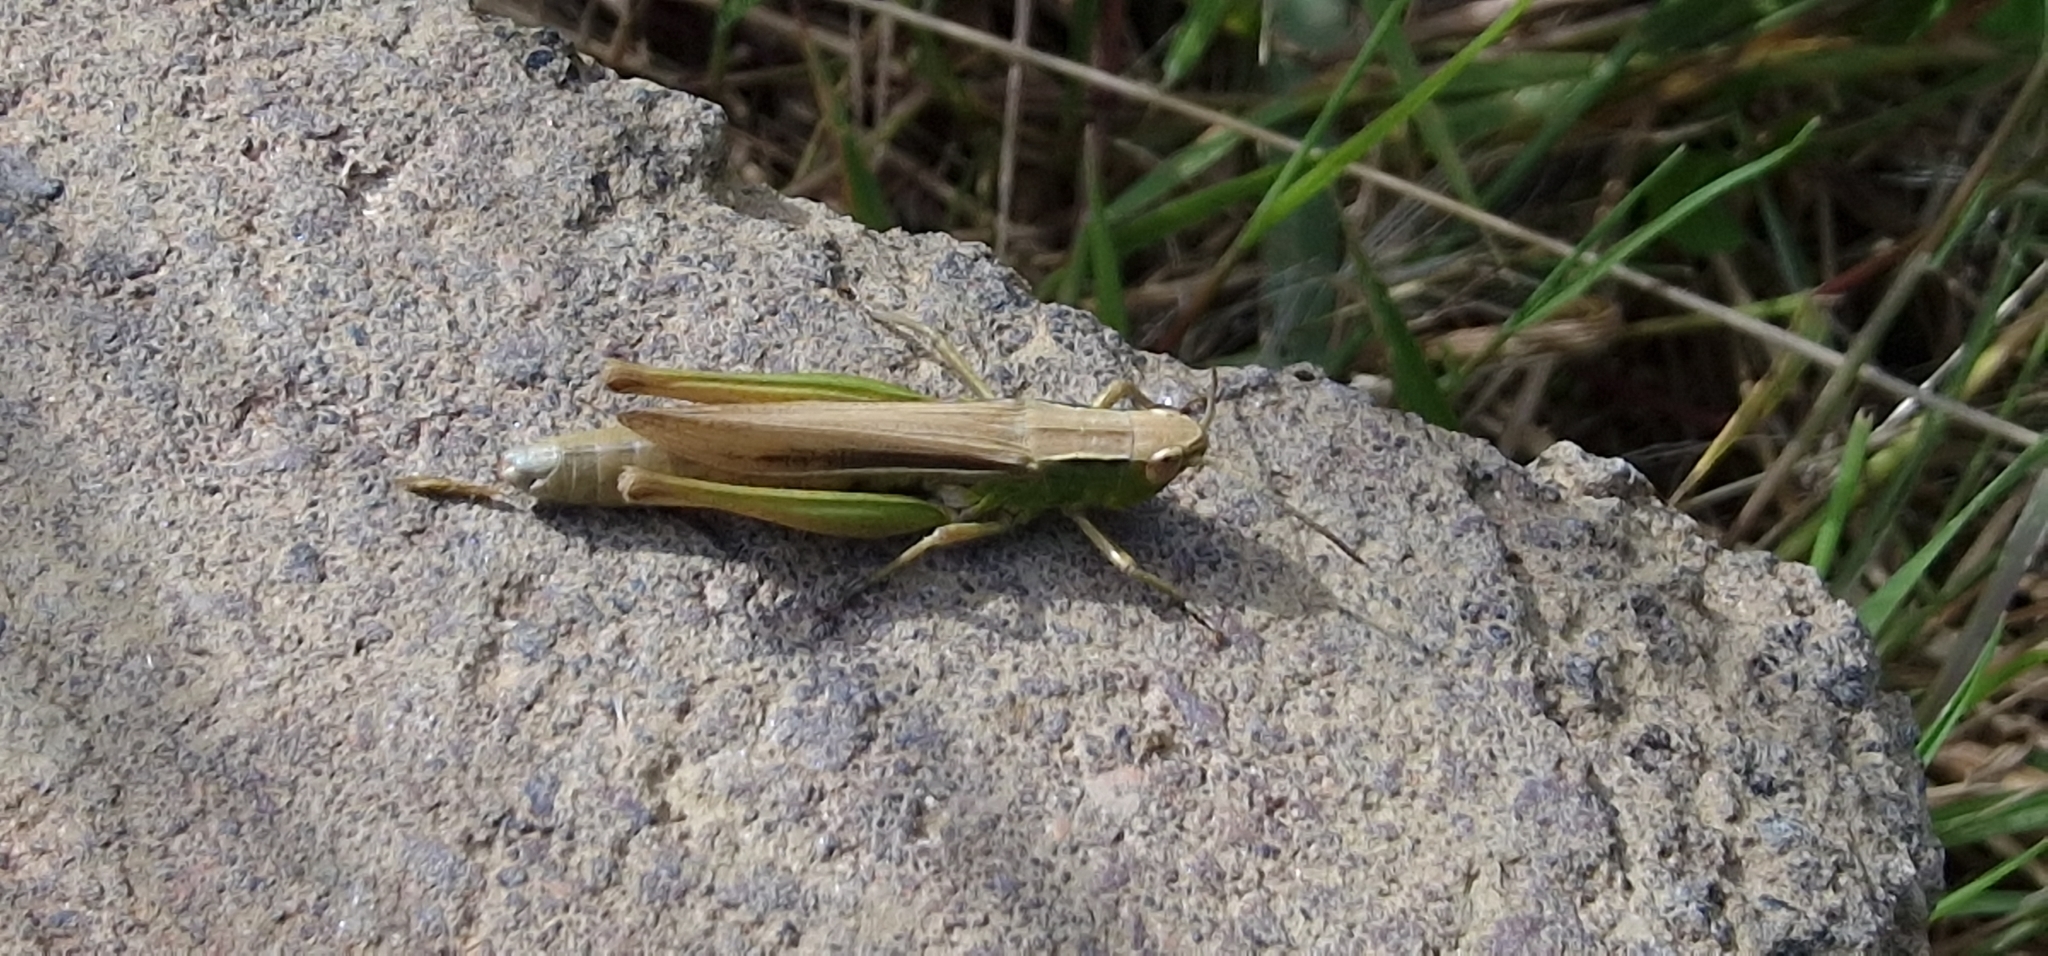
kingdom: Animalia
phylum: Arthropoda
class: Insecta
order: Orthoptera
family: Acrididae
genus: Chorthippus
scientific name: Chorthippus albomarginatus
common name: Lesser marsh grasshopper
